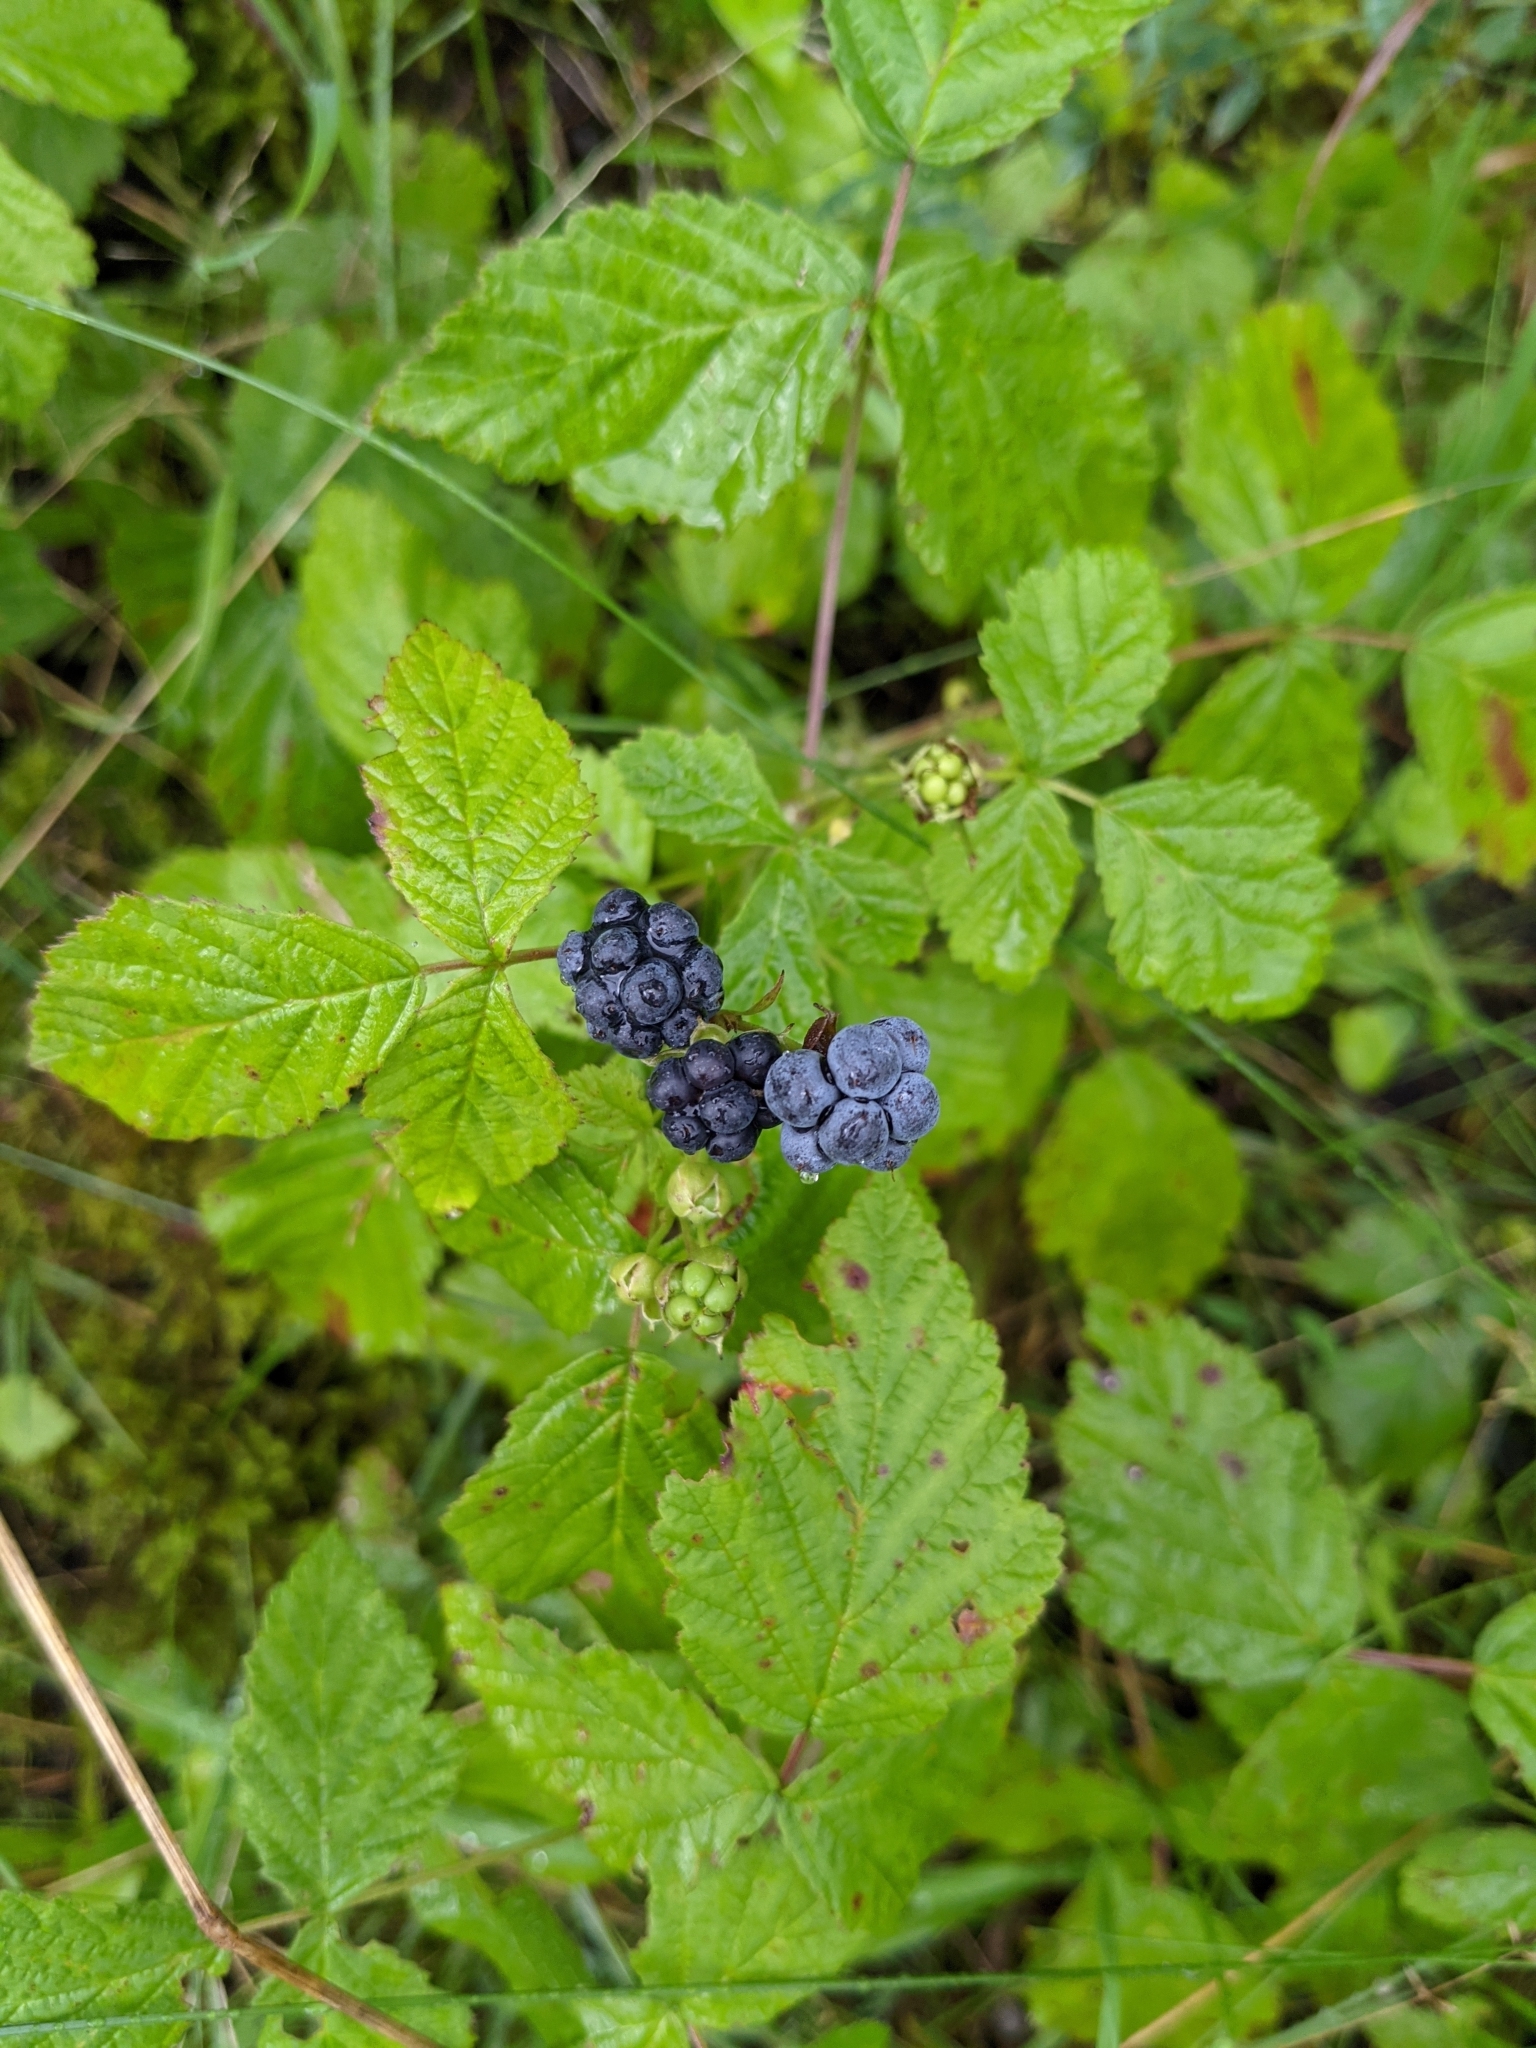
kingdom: Plantae
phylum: Tracheophyta
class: Magnoliopsida
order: Rosales
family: Rosaceae
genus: Rubus
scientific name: Rubus caesius
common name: Dewberry
